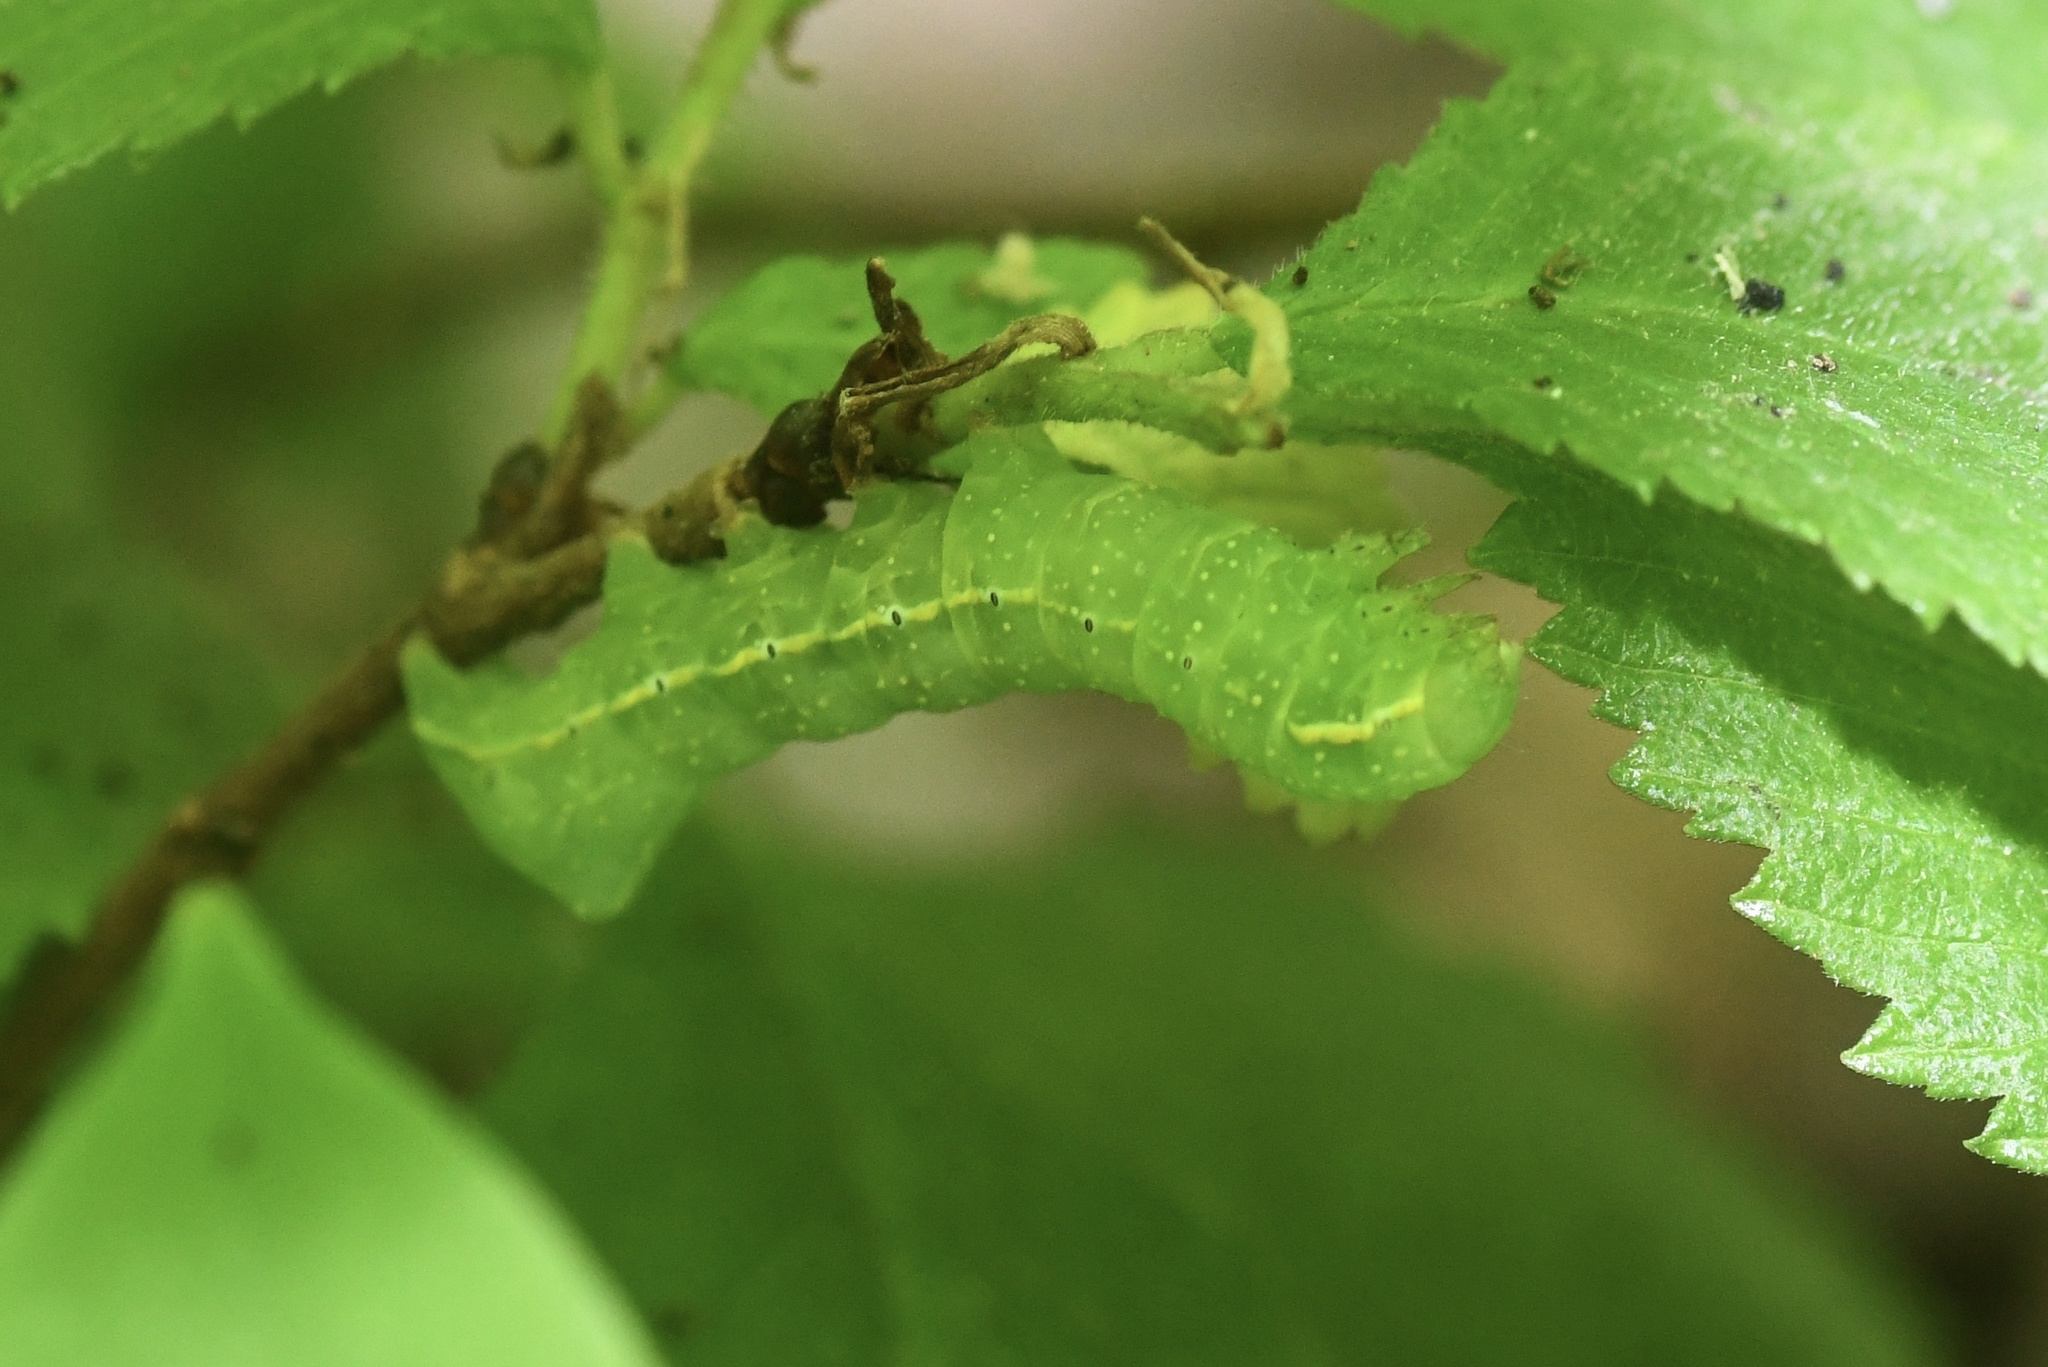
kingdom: Animalia
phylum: Arthropoda
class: Insecta
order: Lepidoptera
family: Noctuidae
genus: Amphipyra
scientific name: Amphipyra pyramidoides
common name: American copper underwing
